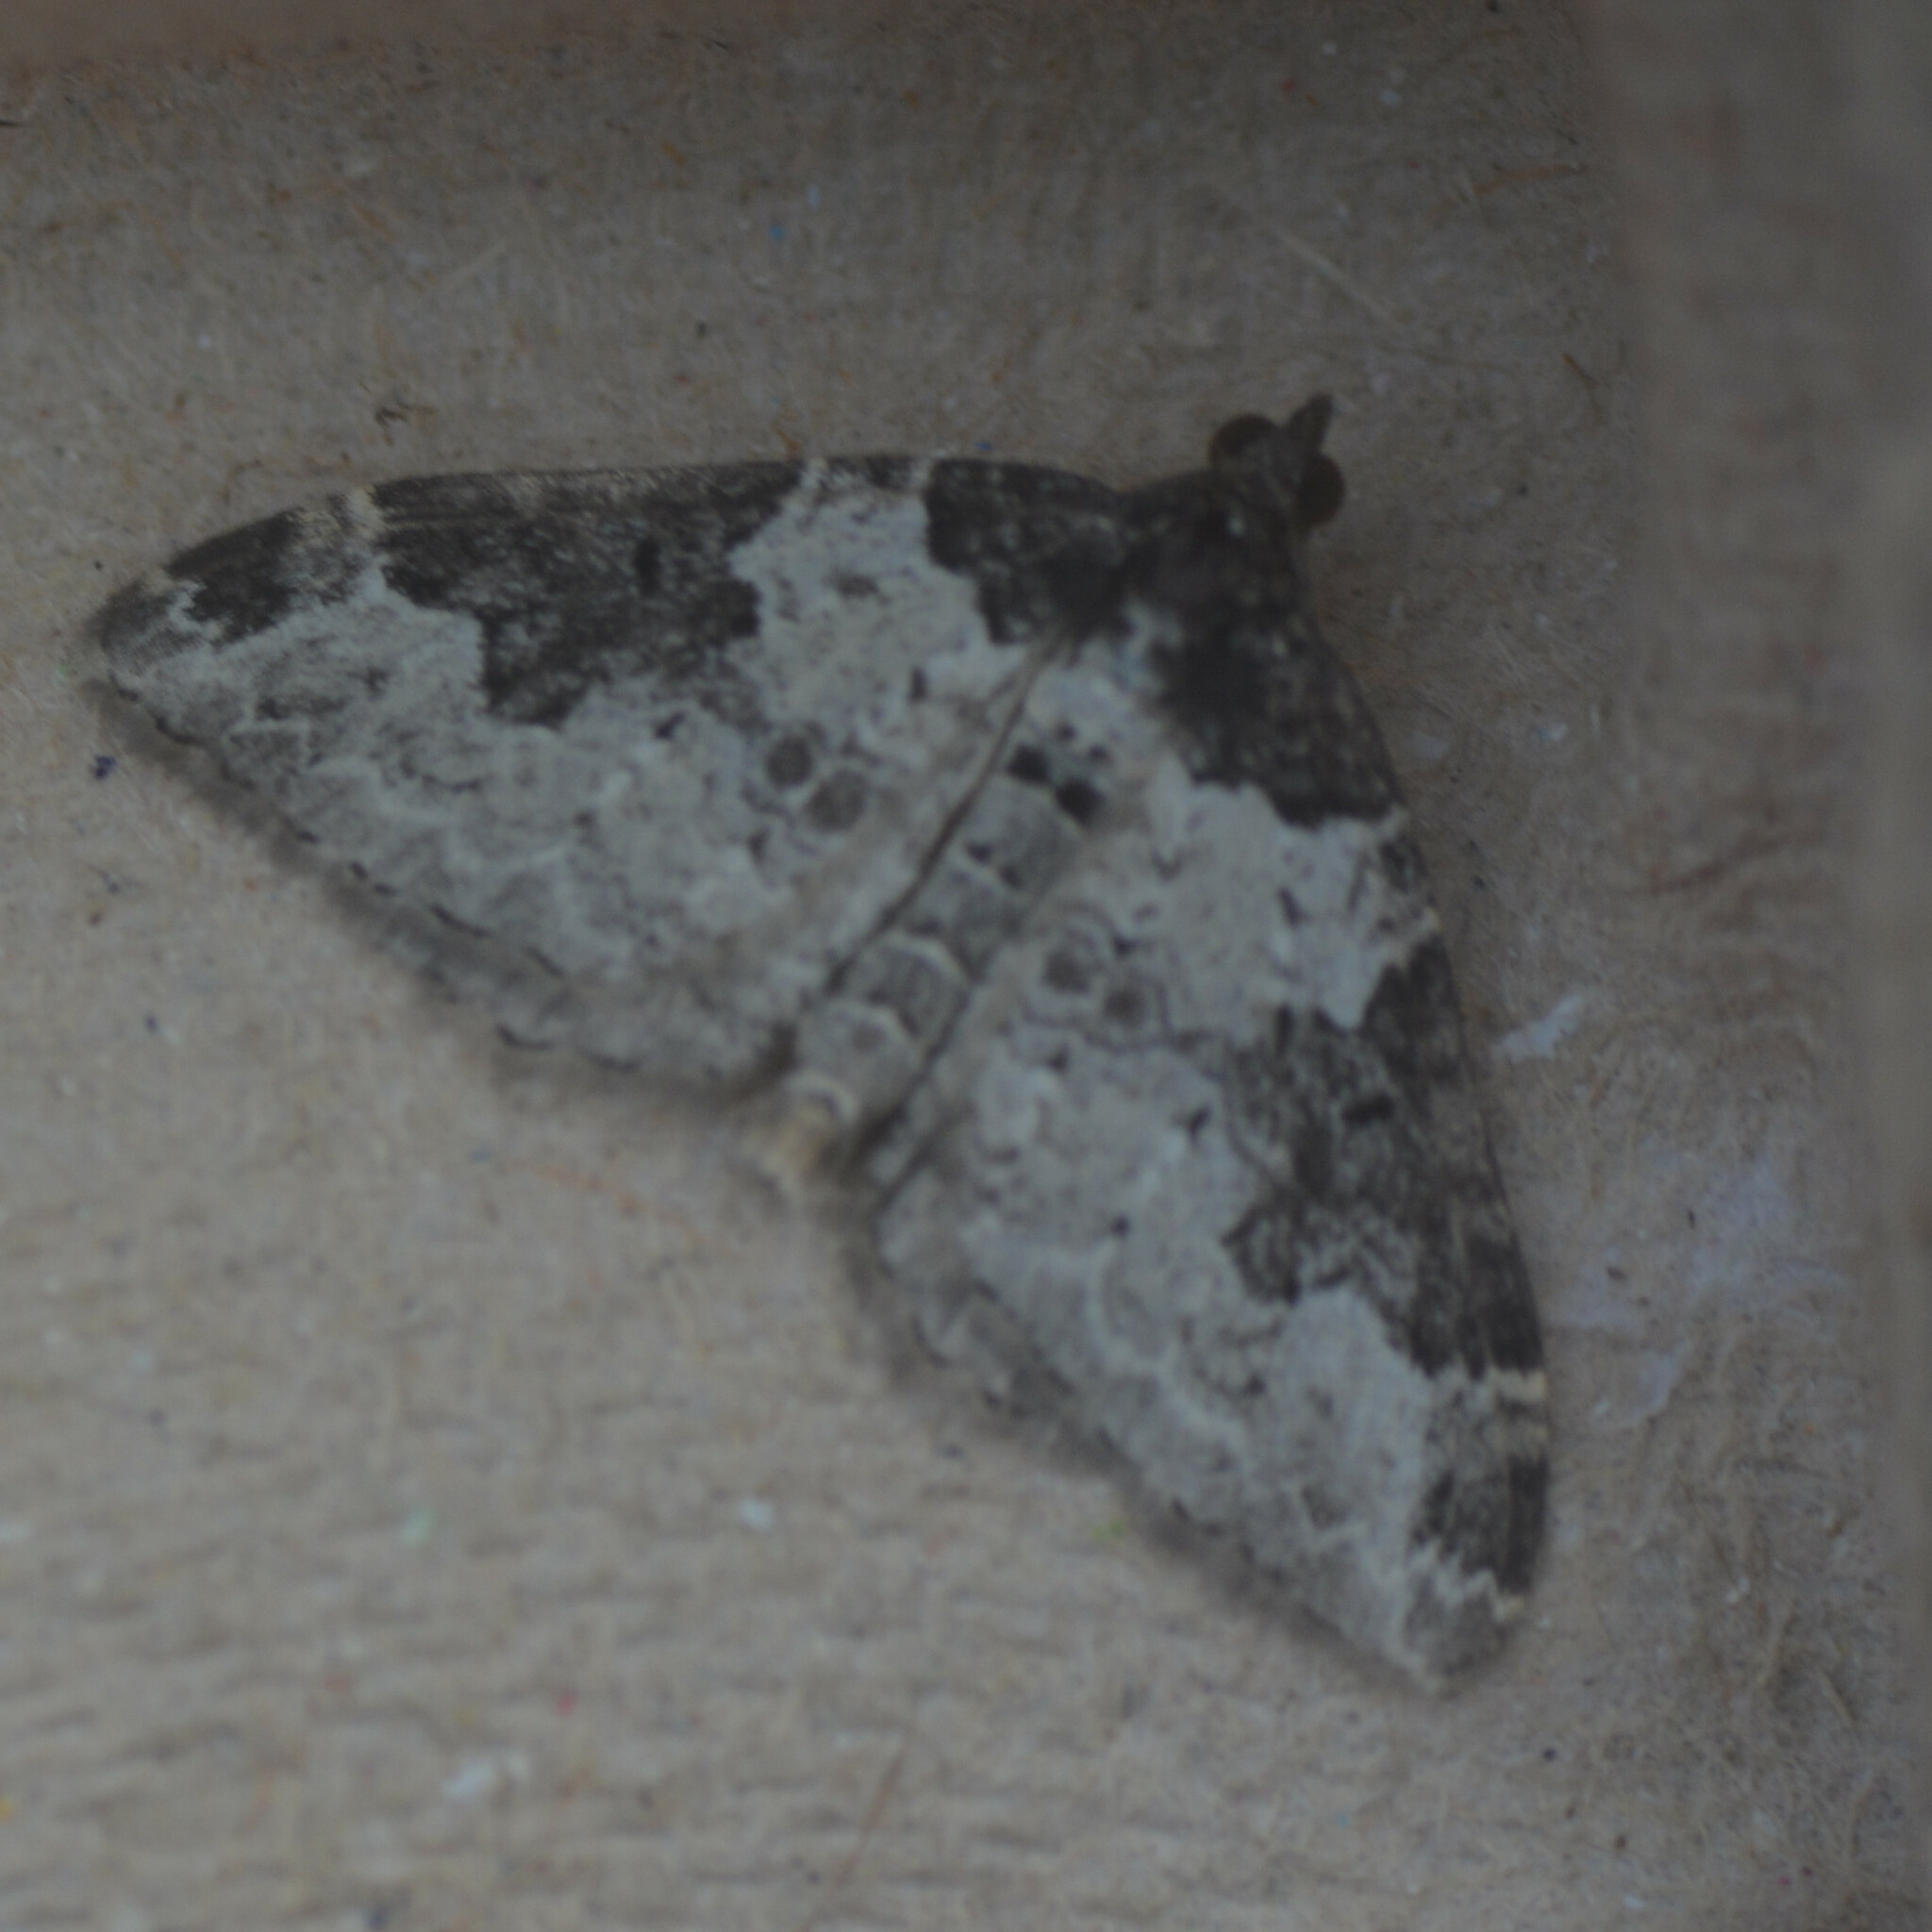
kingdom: Animalia
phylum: Arthropoda
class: Insecta
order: Lepidoptera
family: Geometridae
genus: Xanthorhoe
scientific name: Xanthorhoe fluctuata
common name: Garden carpet
